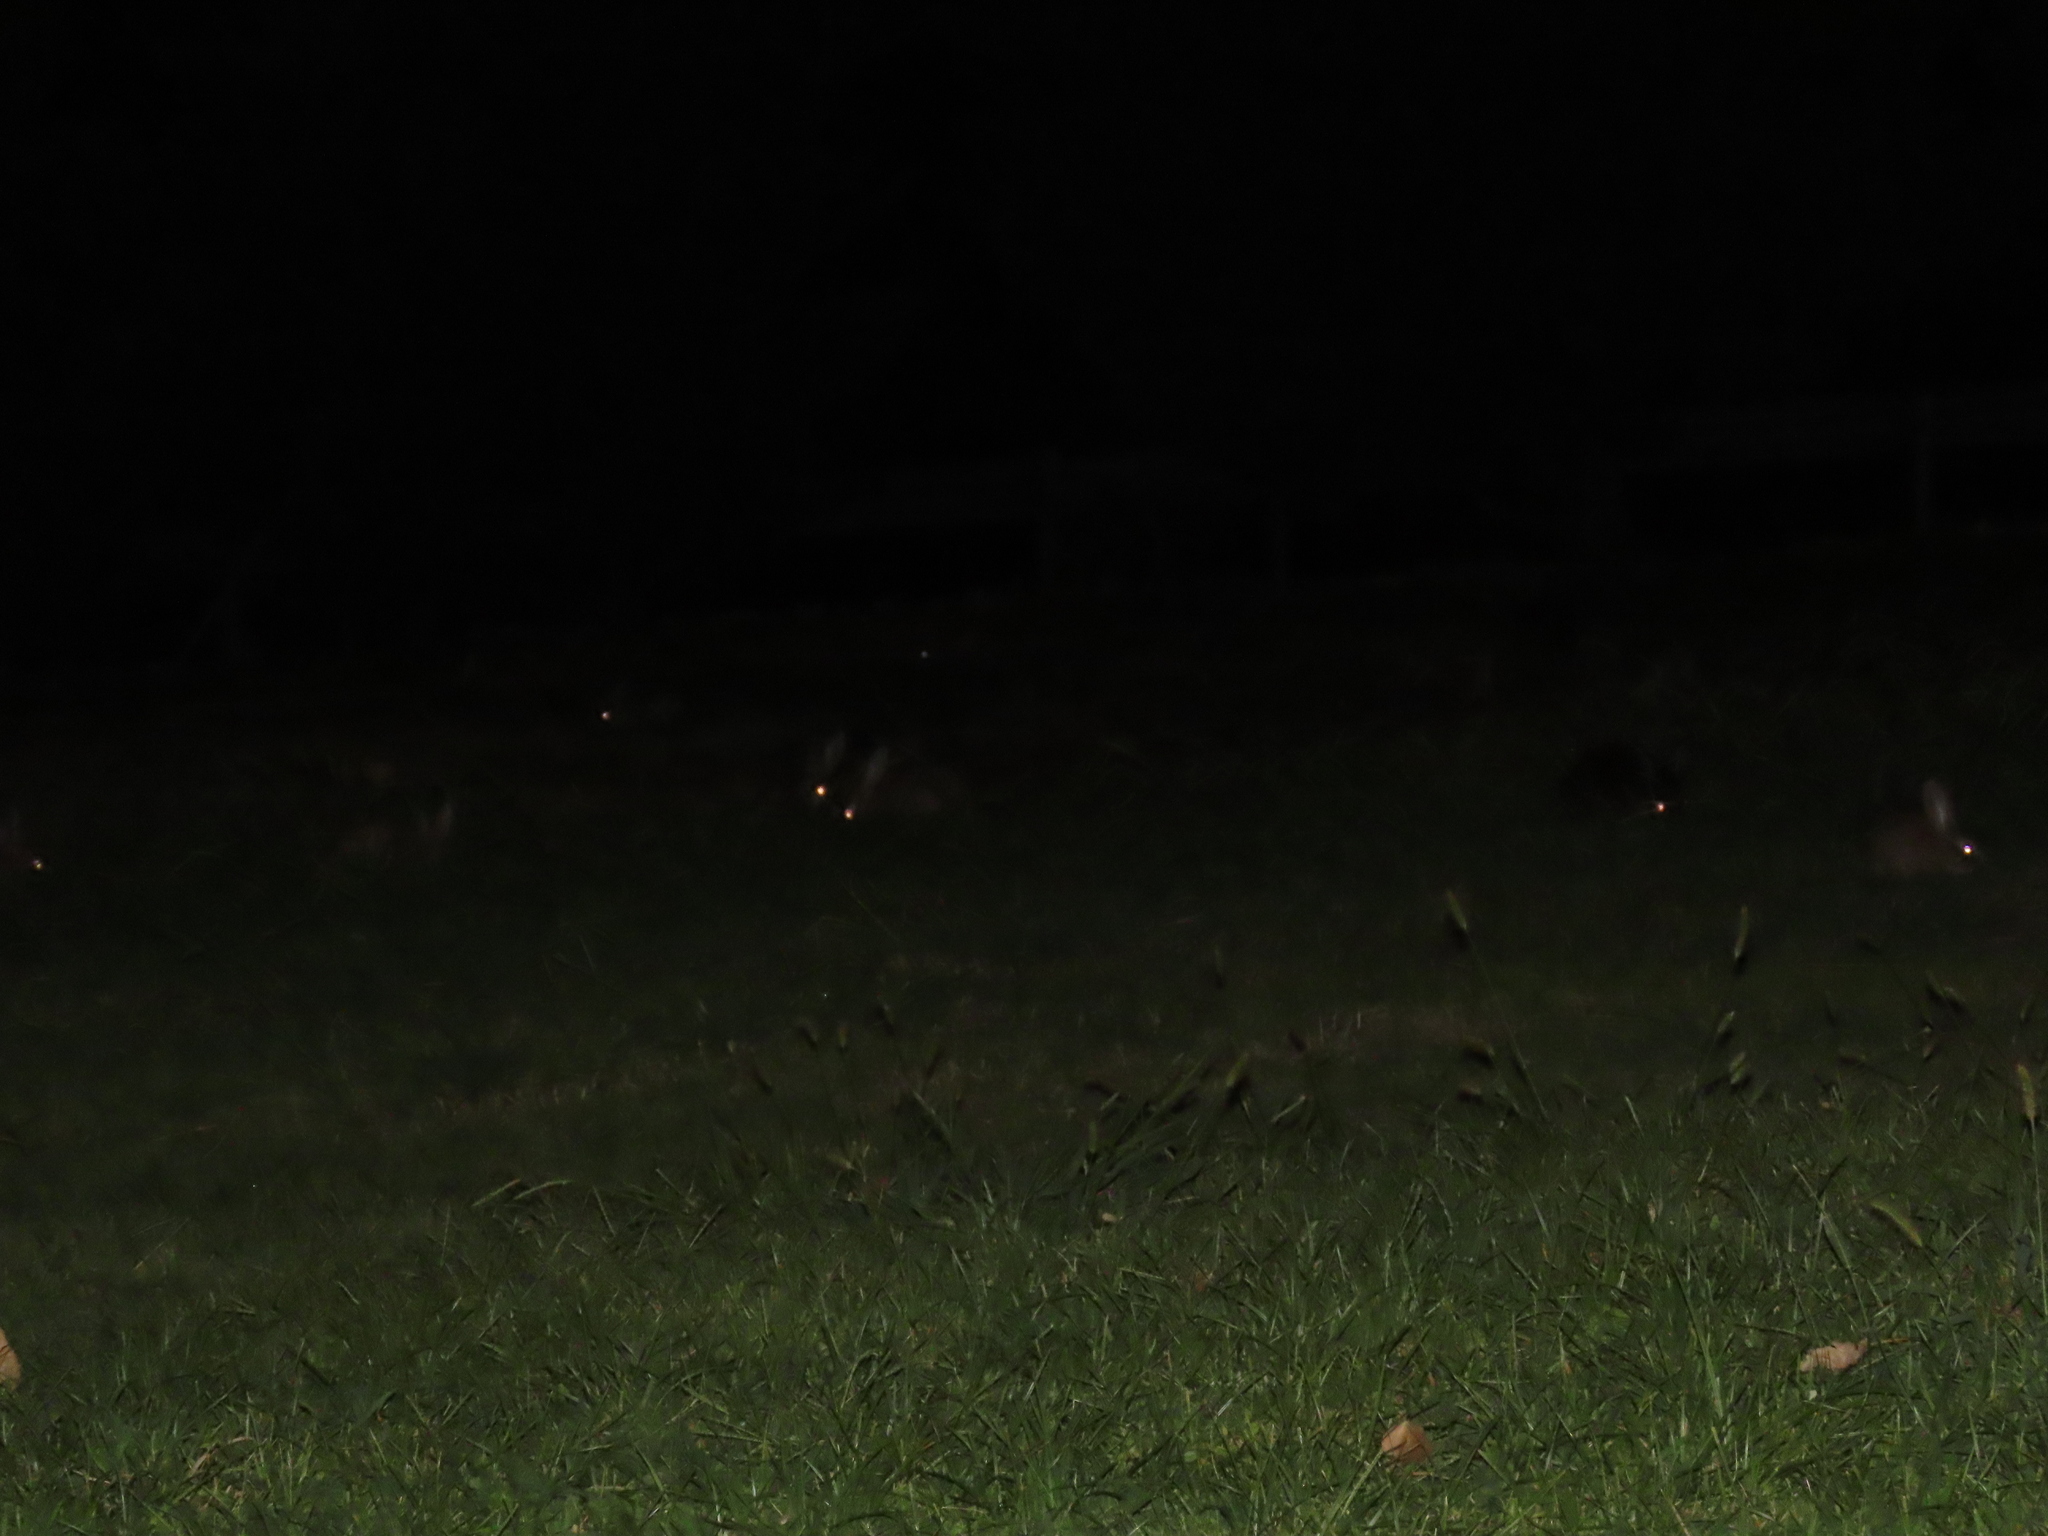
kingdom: Animalia
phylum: Chordata
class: Mammalia
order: Lagomorpha
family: Leporidae
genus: Oryctolagus
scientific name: Oryctolagus cuniculus
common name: European rabbit
